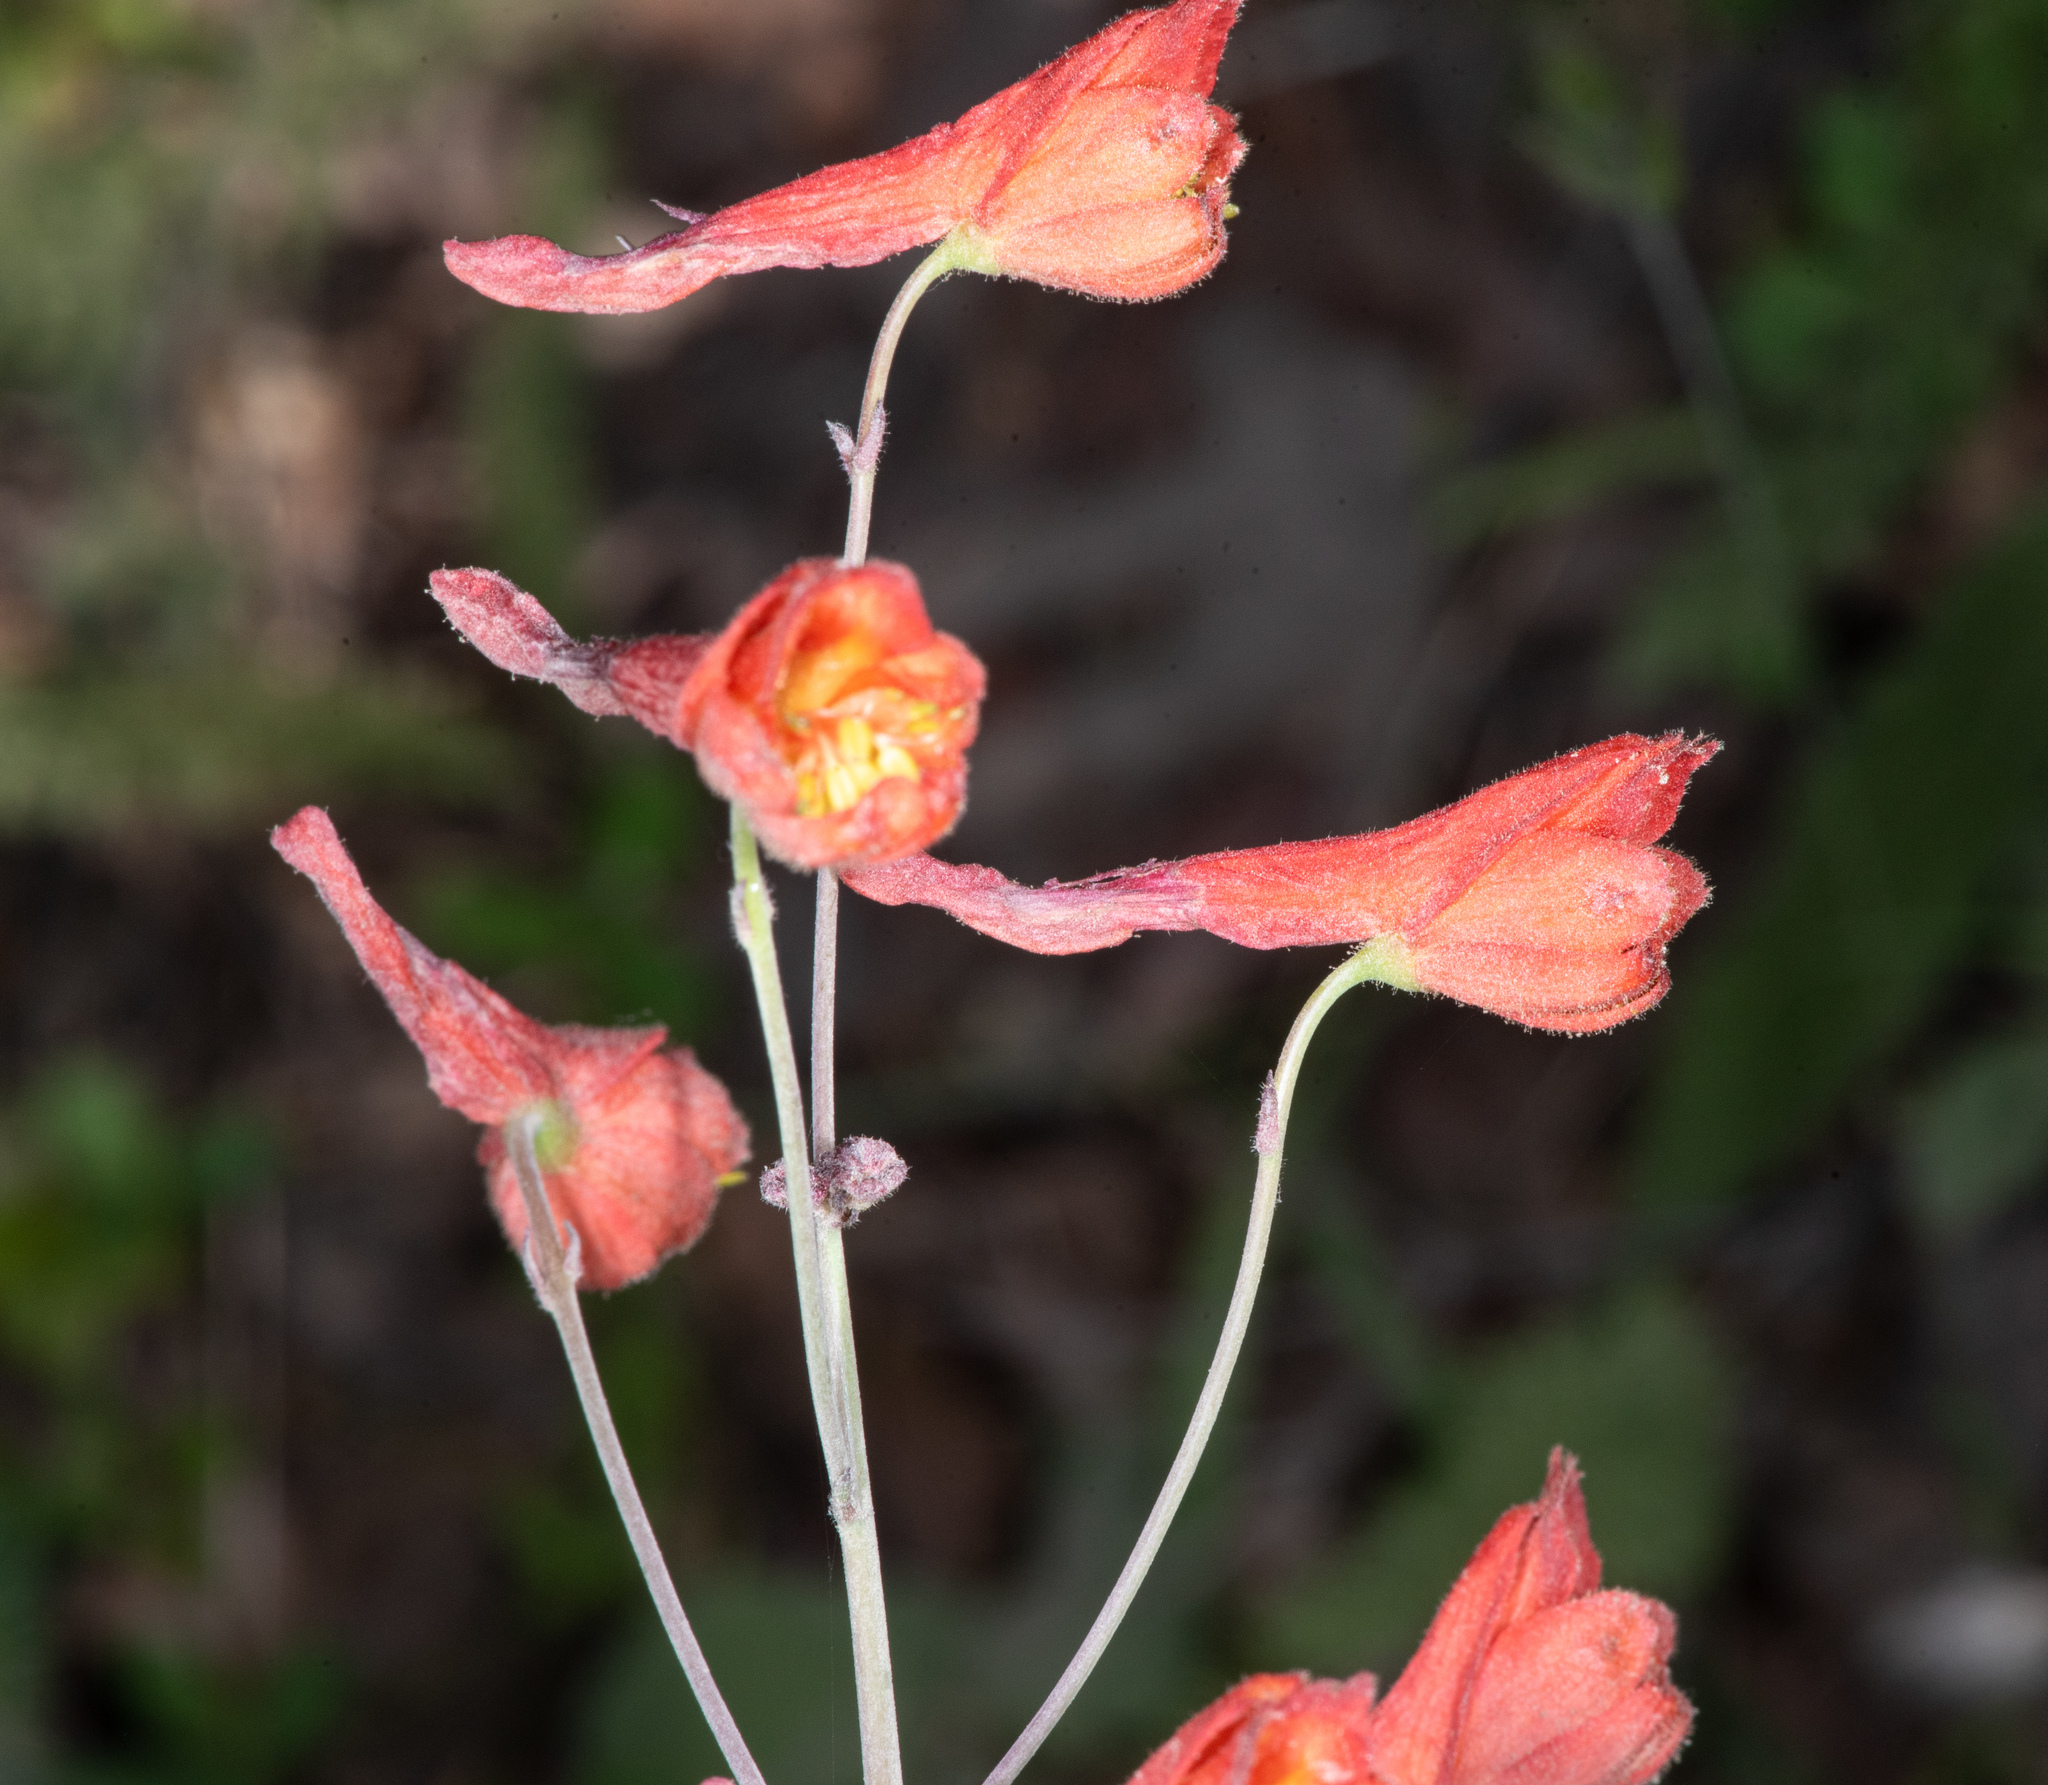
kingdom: Plantae
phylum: Tracheophyta
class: Magnoliopsida
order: Ranunculales
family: Ranunculaceae
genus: Delphinium
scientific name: Delphinium nudicaule
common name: Red larkspur
